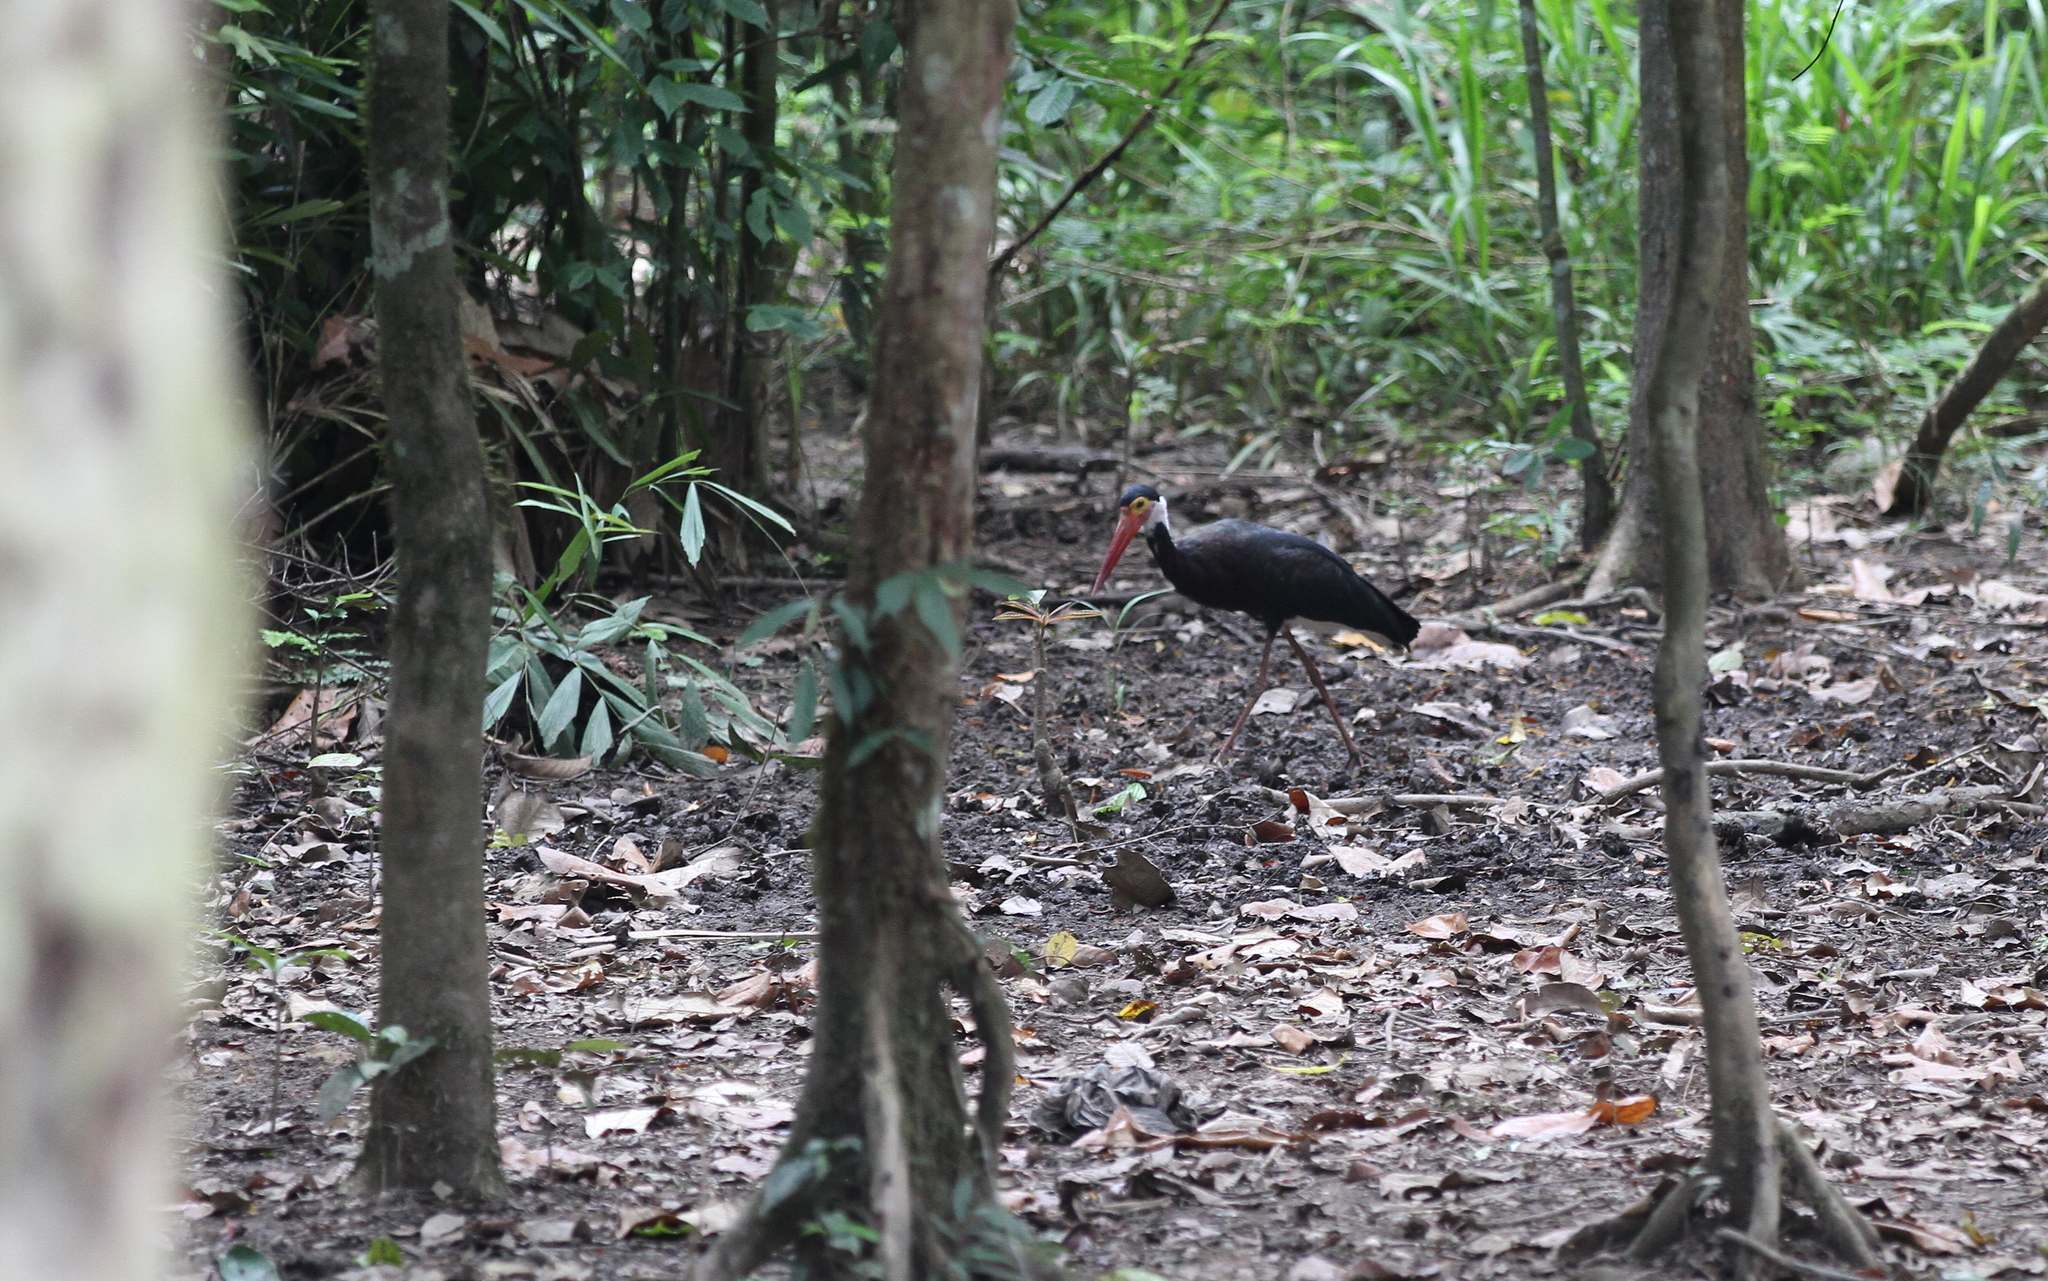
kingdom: Animalia
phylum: Chordata
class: Aves
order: Ciconiiformes
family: Ciconiidae
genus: Ciconia
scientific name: Ciconia stormi
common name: Storm's stork
